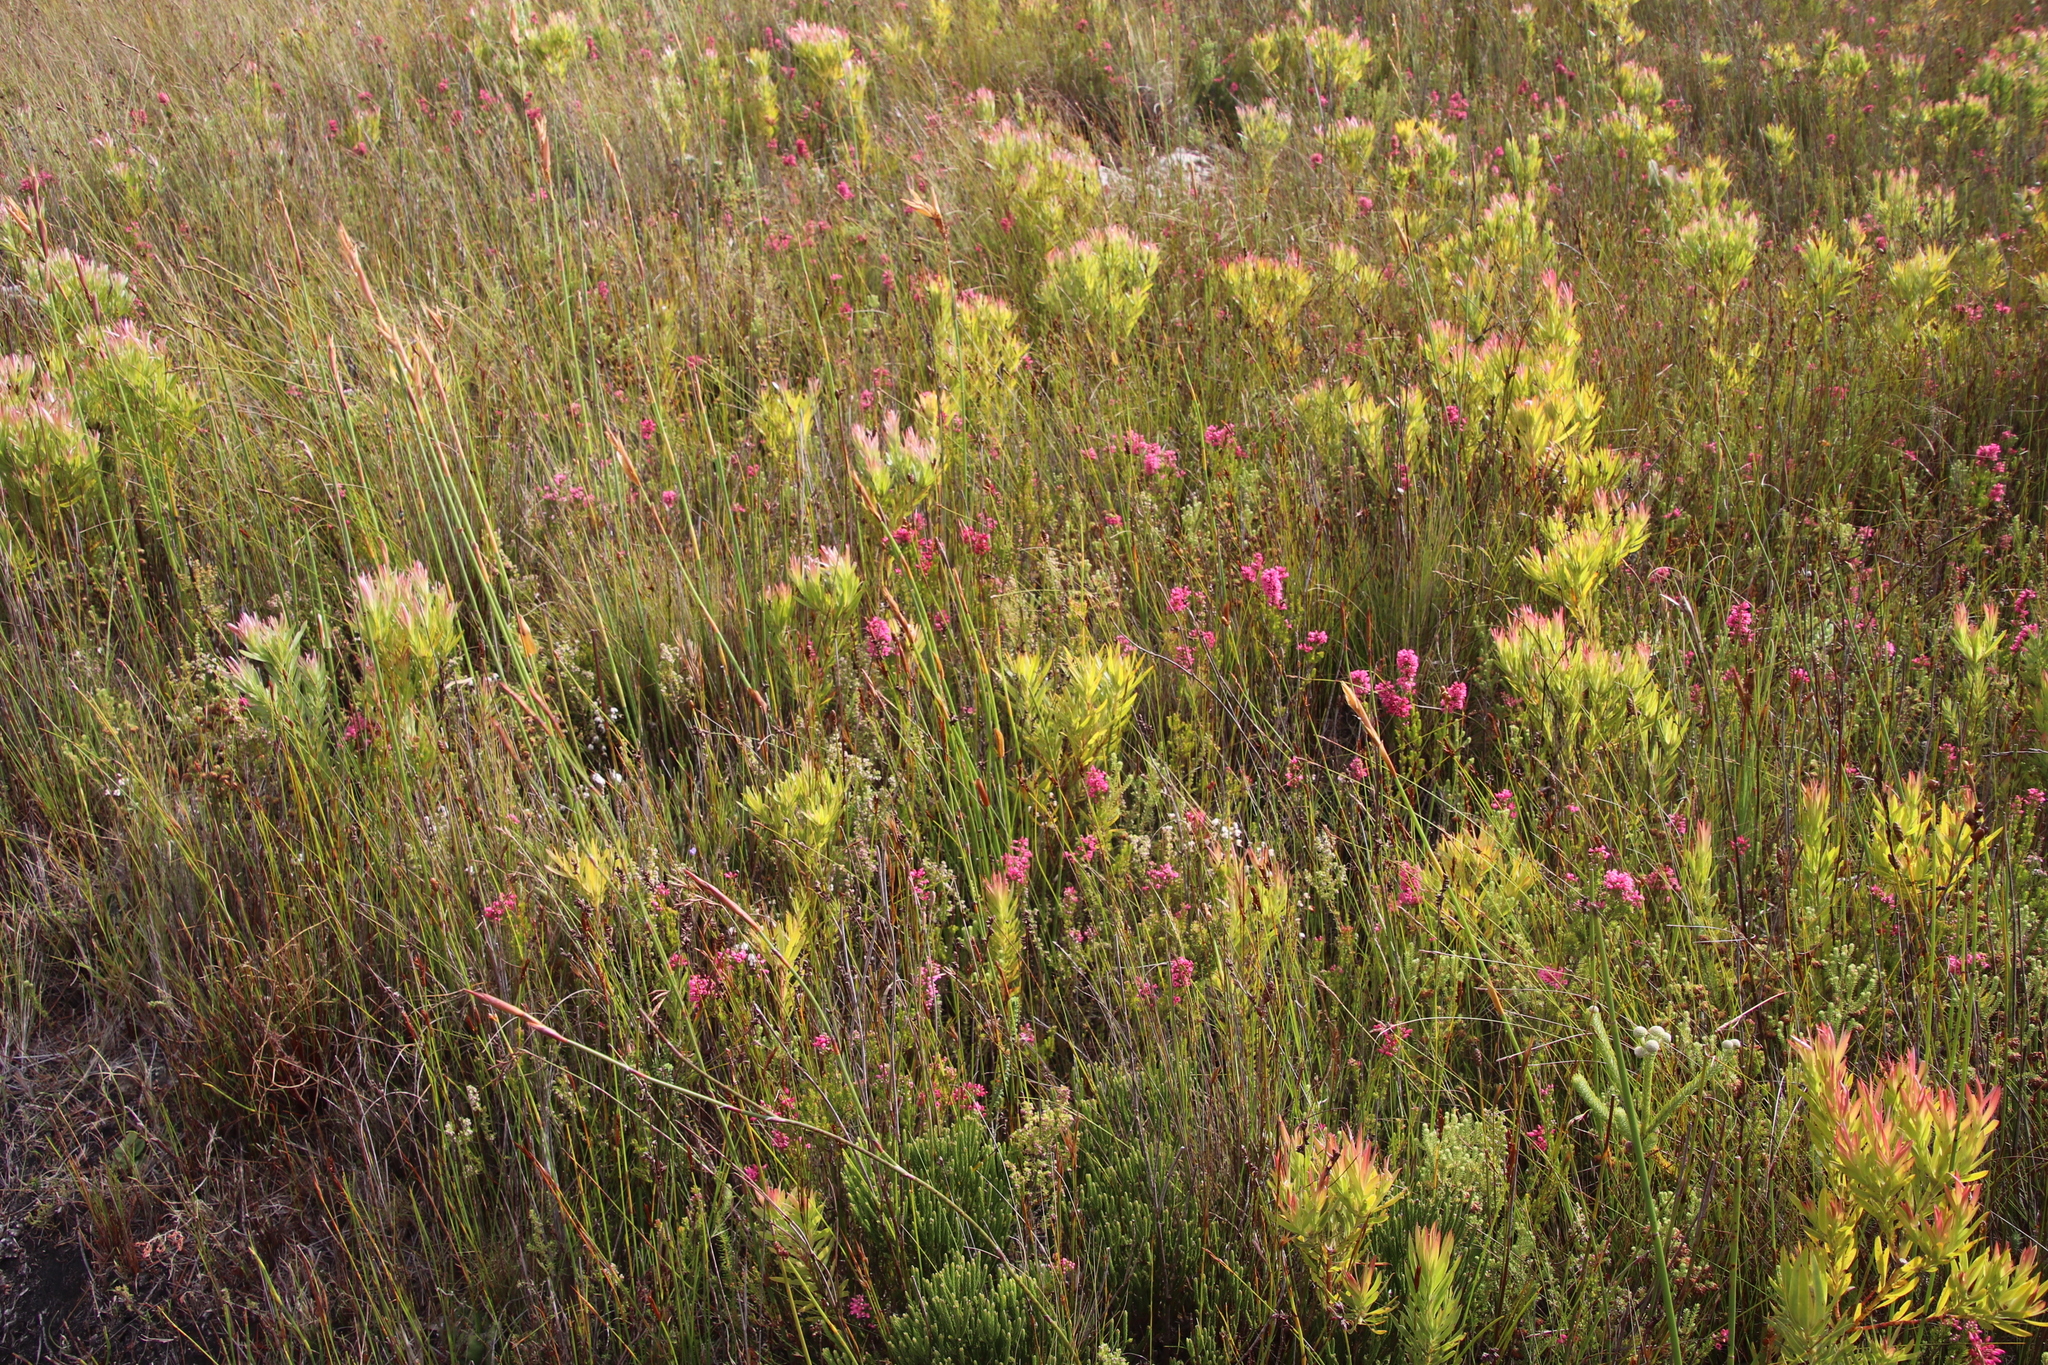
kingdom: Plantae
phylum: Tracheophyta
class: Magnoliopsida
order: Ericales
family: Ericaceae
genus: Erica
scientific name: Erica desmantha
